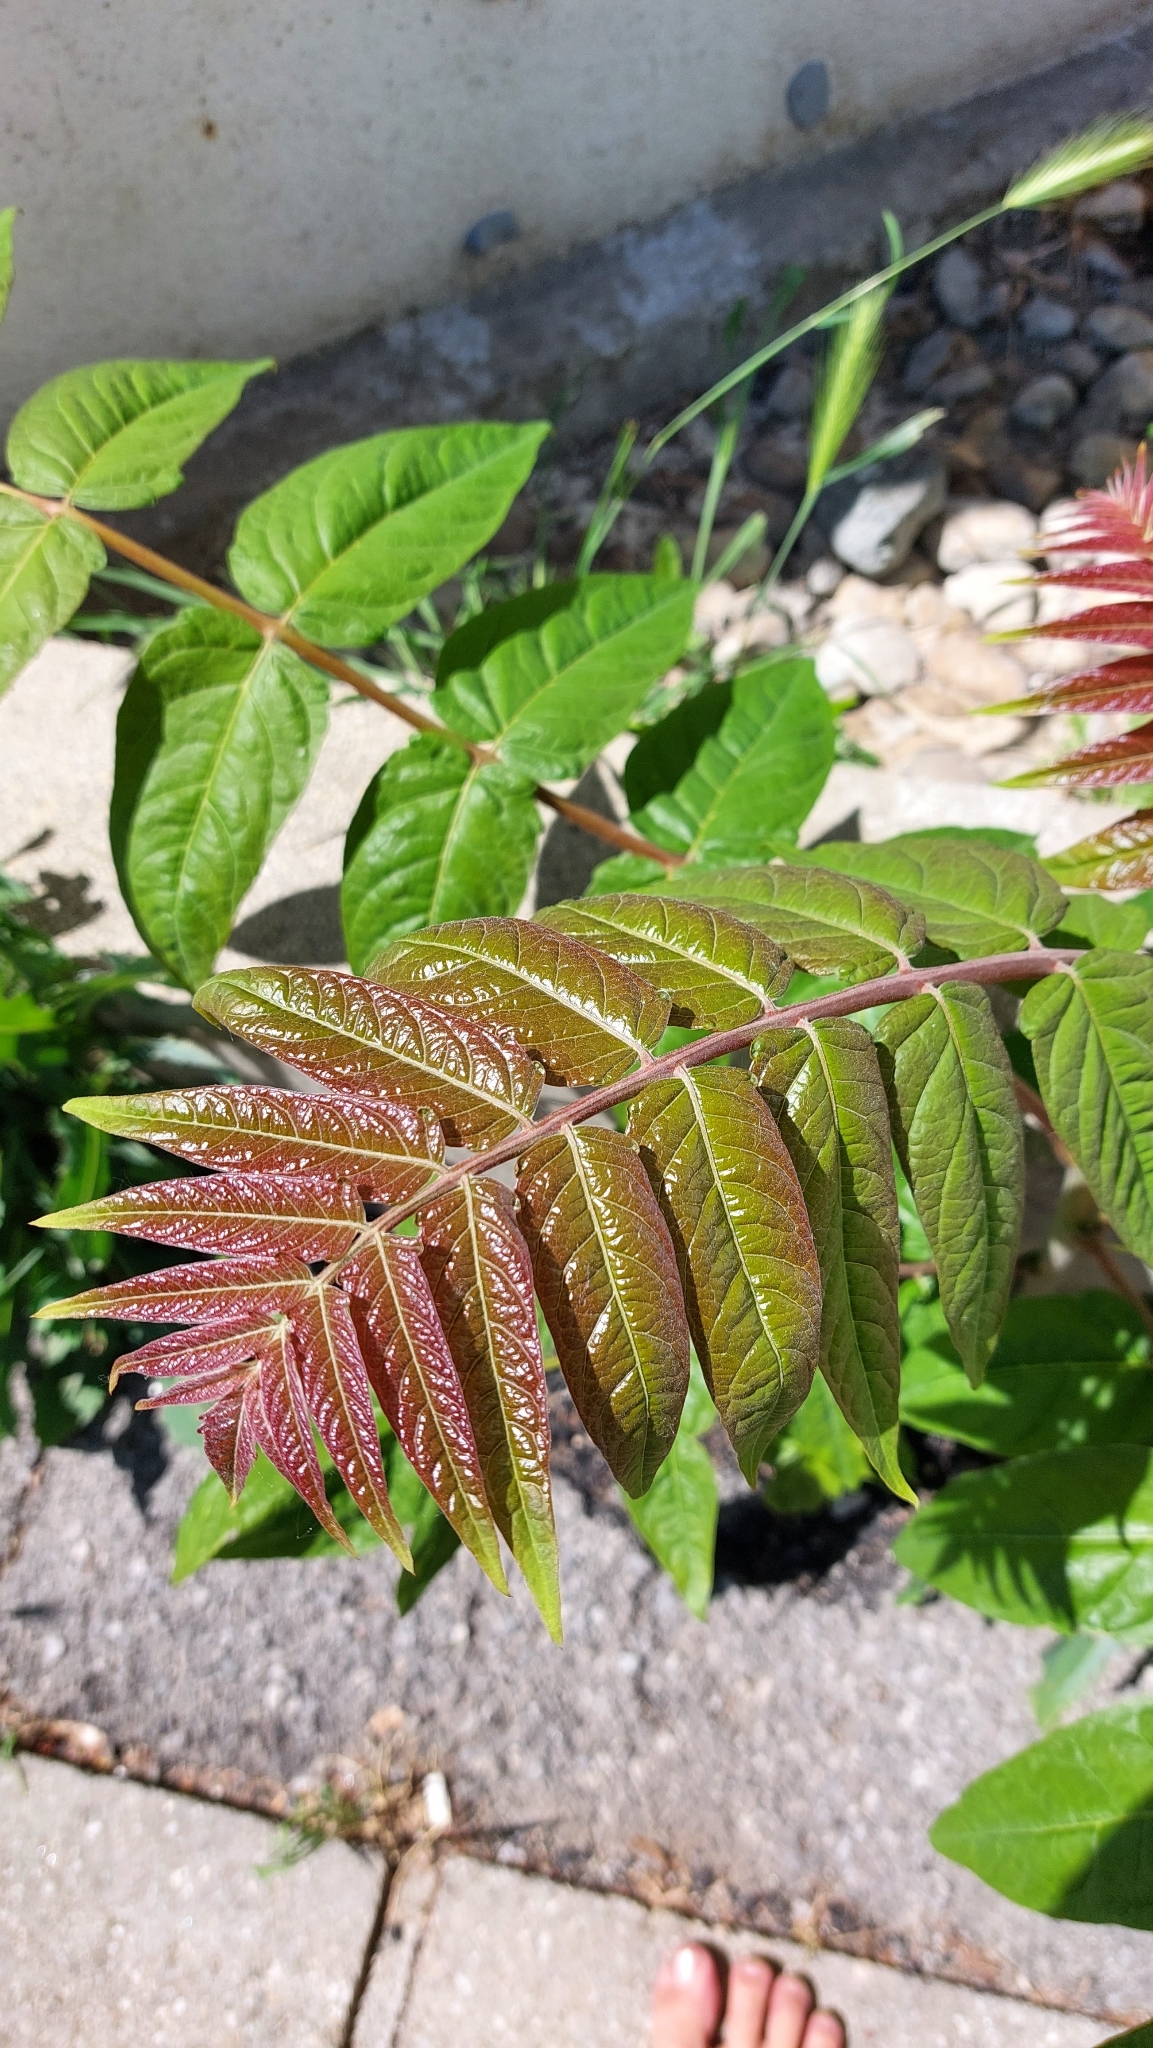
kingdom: Plantae
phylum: Tracheophyta
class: Magnoliopsida
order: Sapindales
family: Simaroubaceae
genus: Ailanthus
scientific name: Ailanthus altissima
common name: Tree-of-heaven
